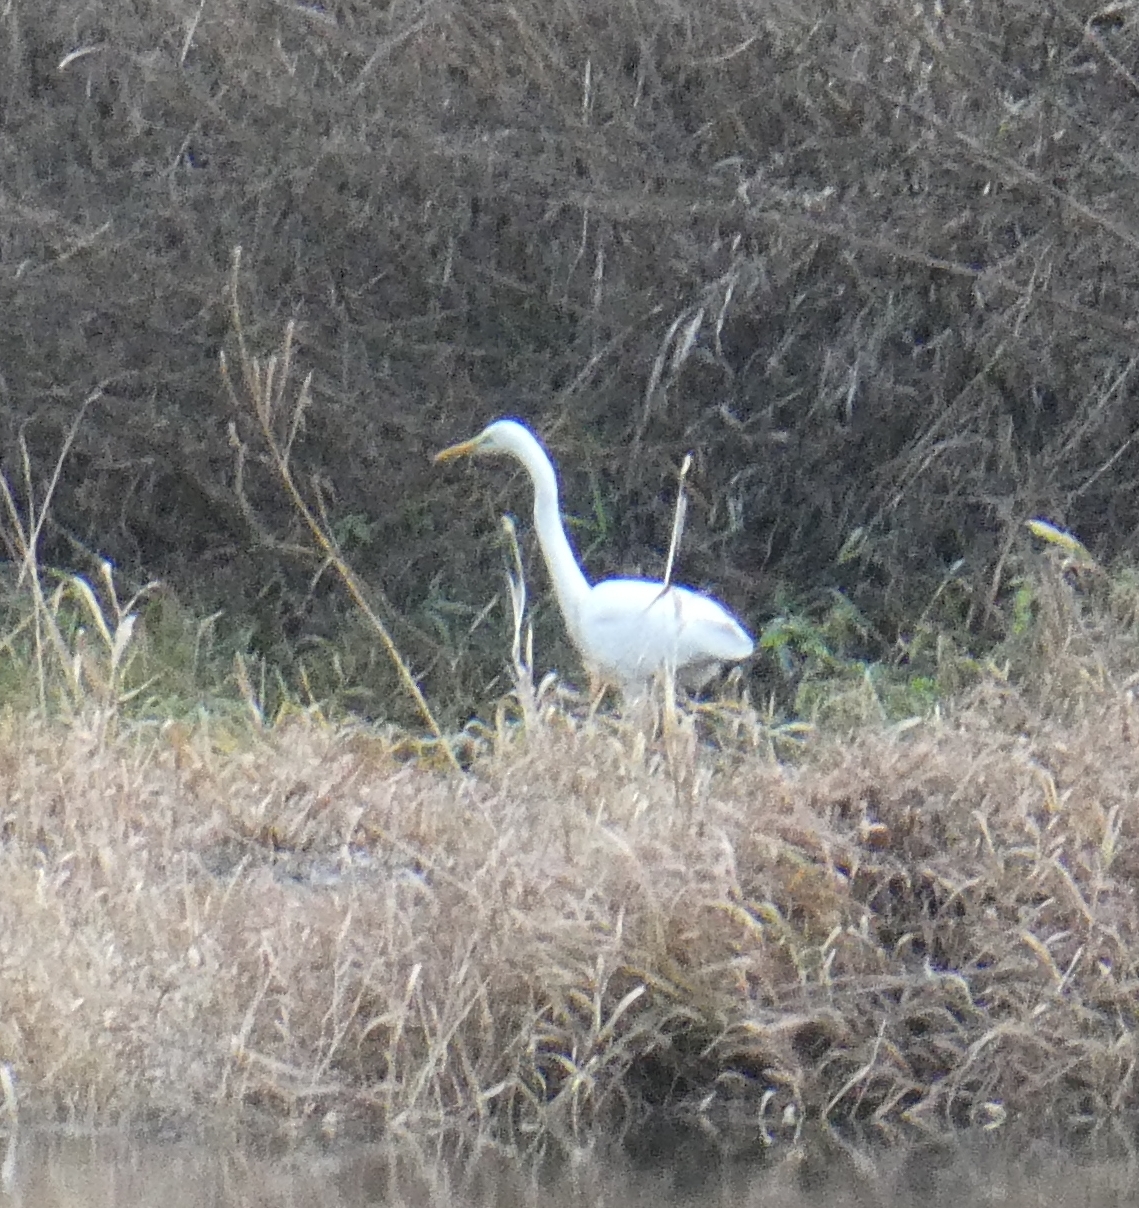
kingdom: Animalia
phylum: Chordata
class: Aves
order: Pelecaniformes
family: Ardeidae
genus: Ardea
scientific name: Ardea alba
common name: Great egret
